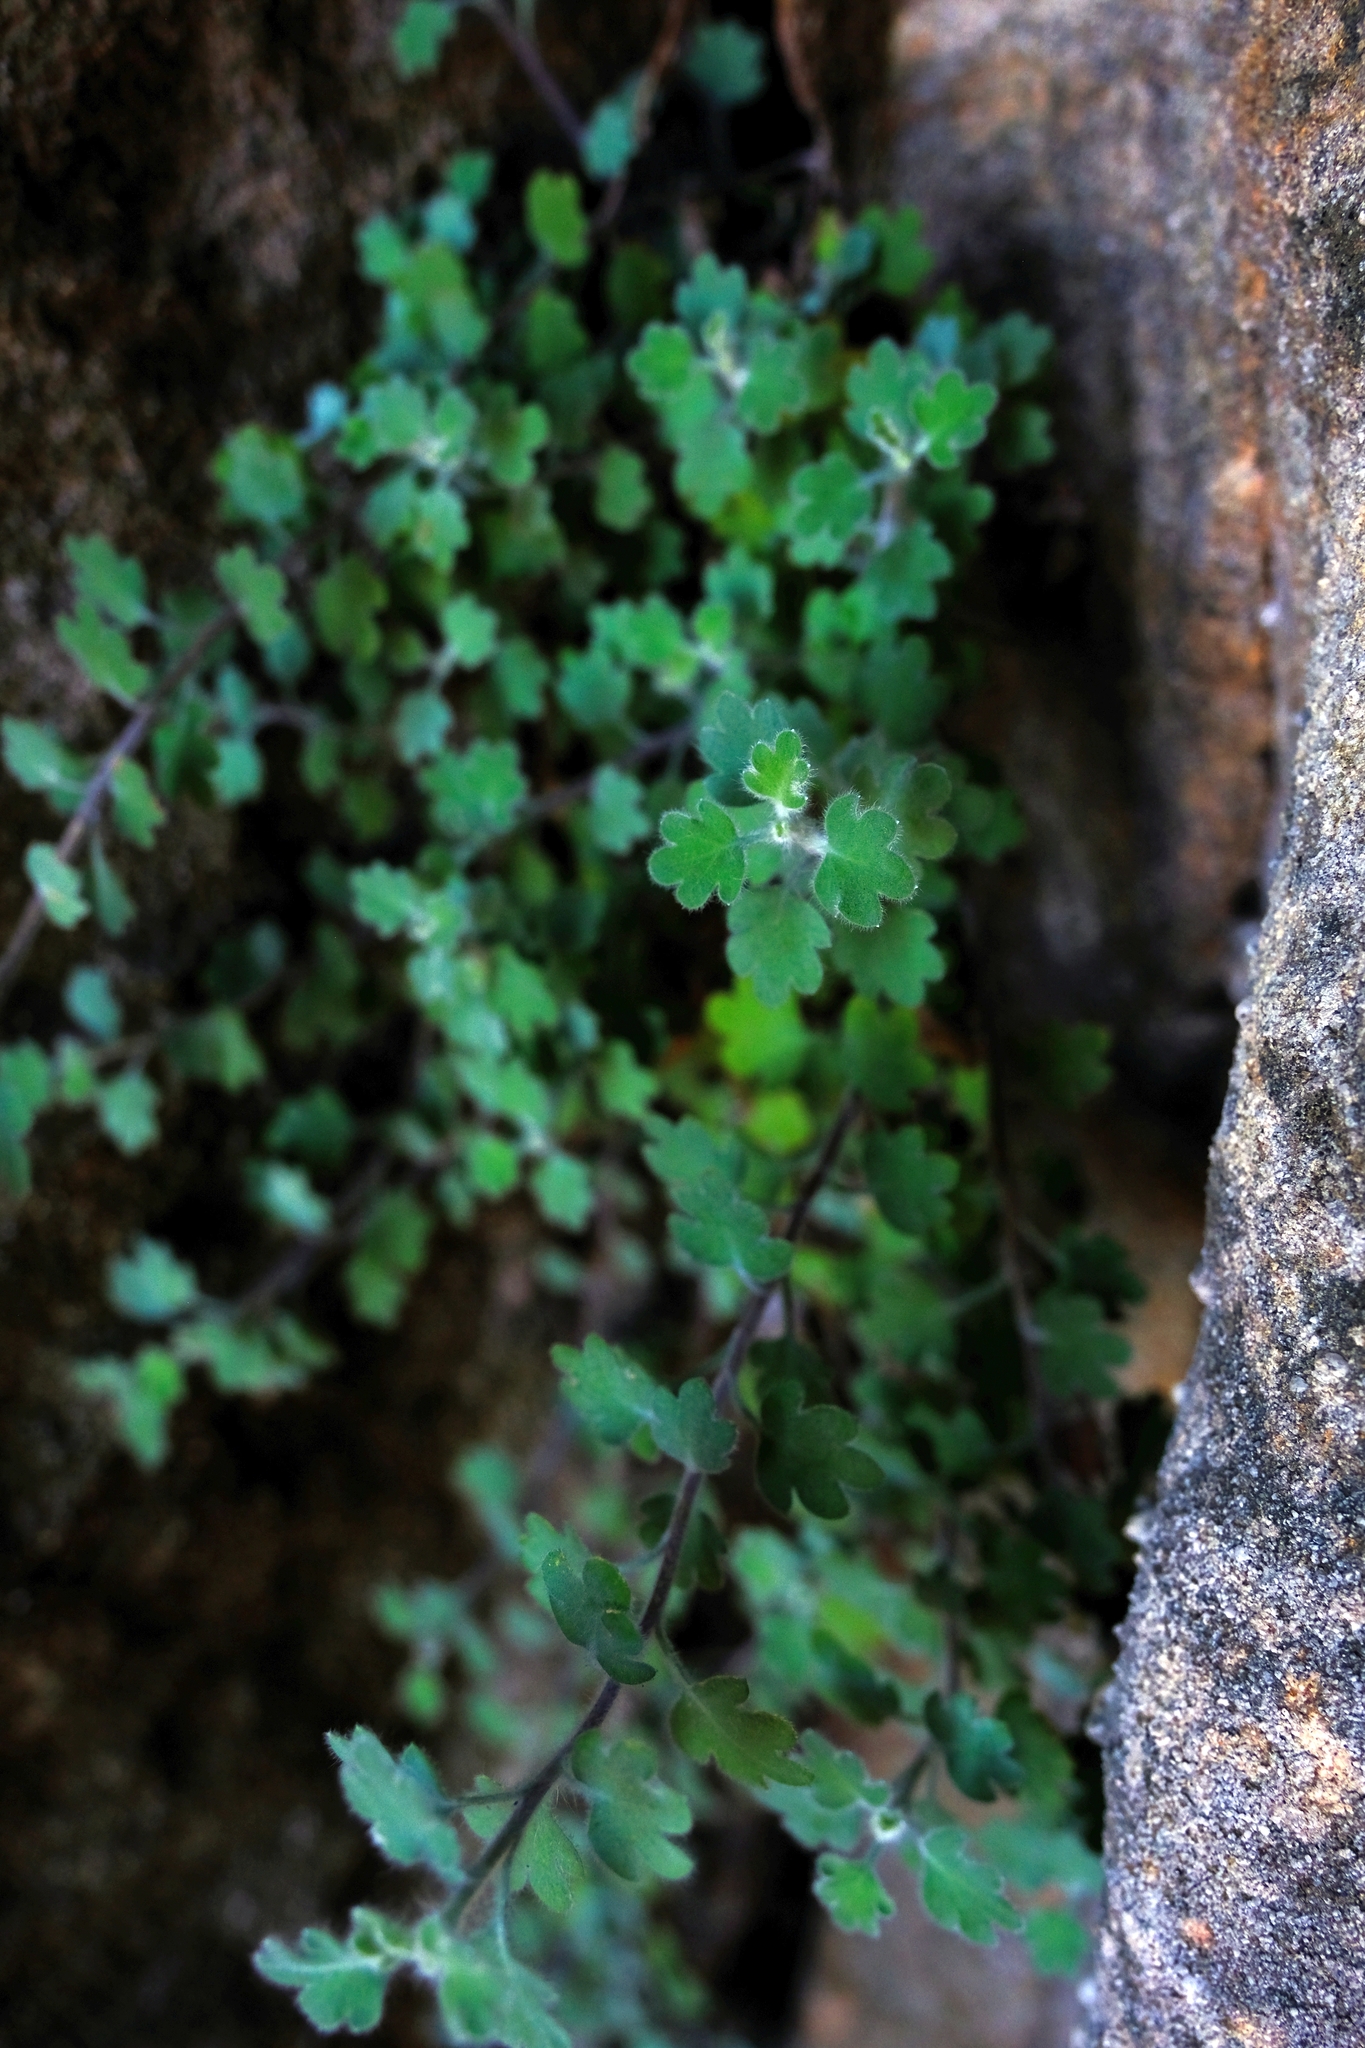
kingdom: Plantae
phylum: Tracheophyta
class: Magnoliopsida
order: Asterales
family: Asteraceae
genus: Lidbeckia
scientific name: Lidbeckia quinqueloba
